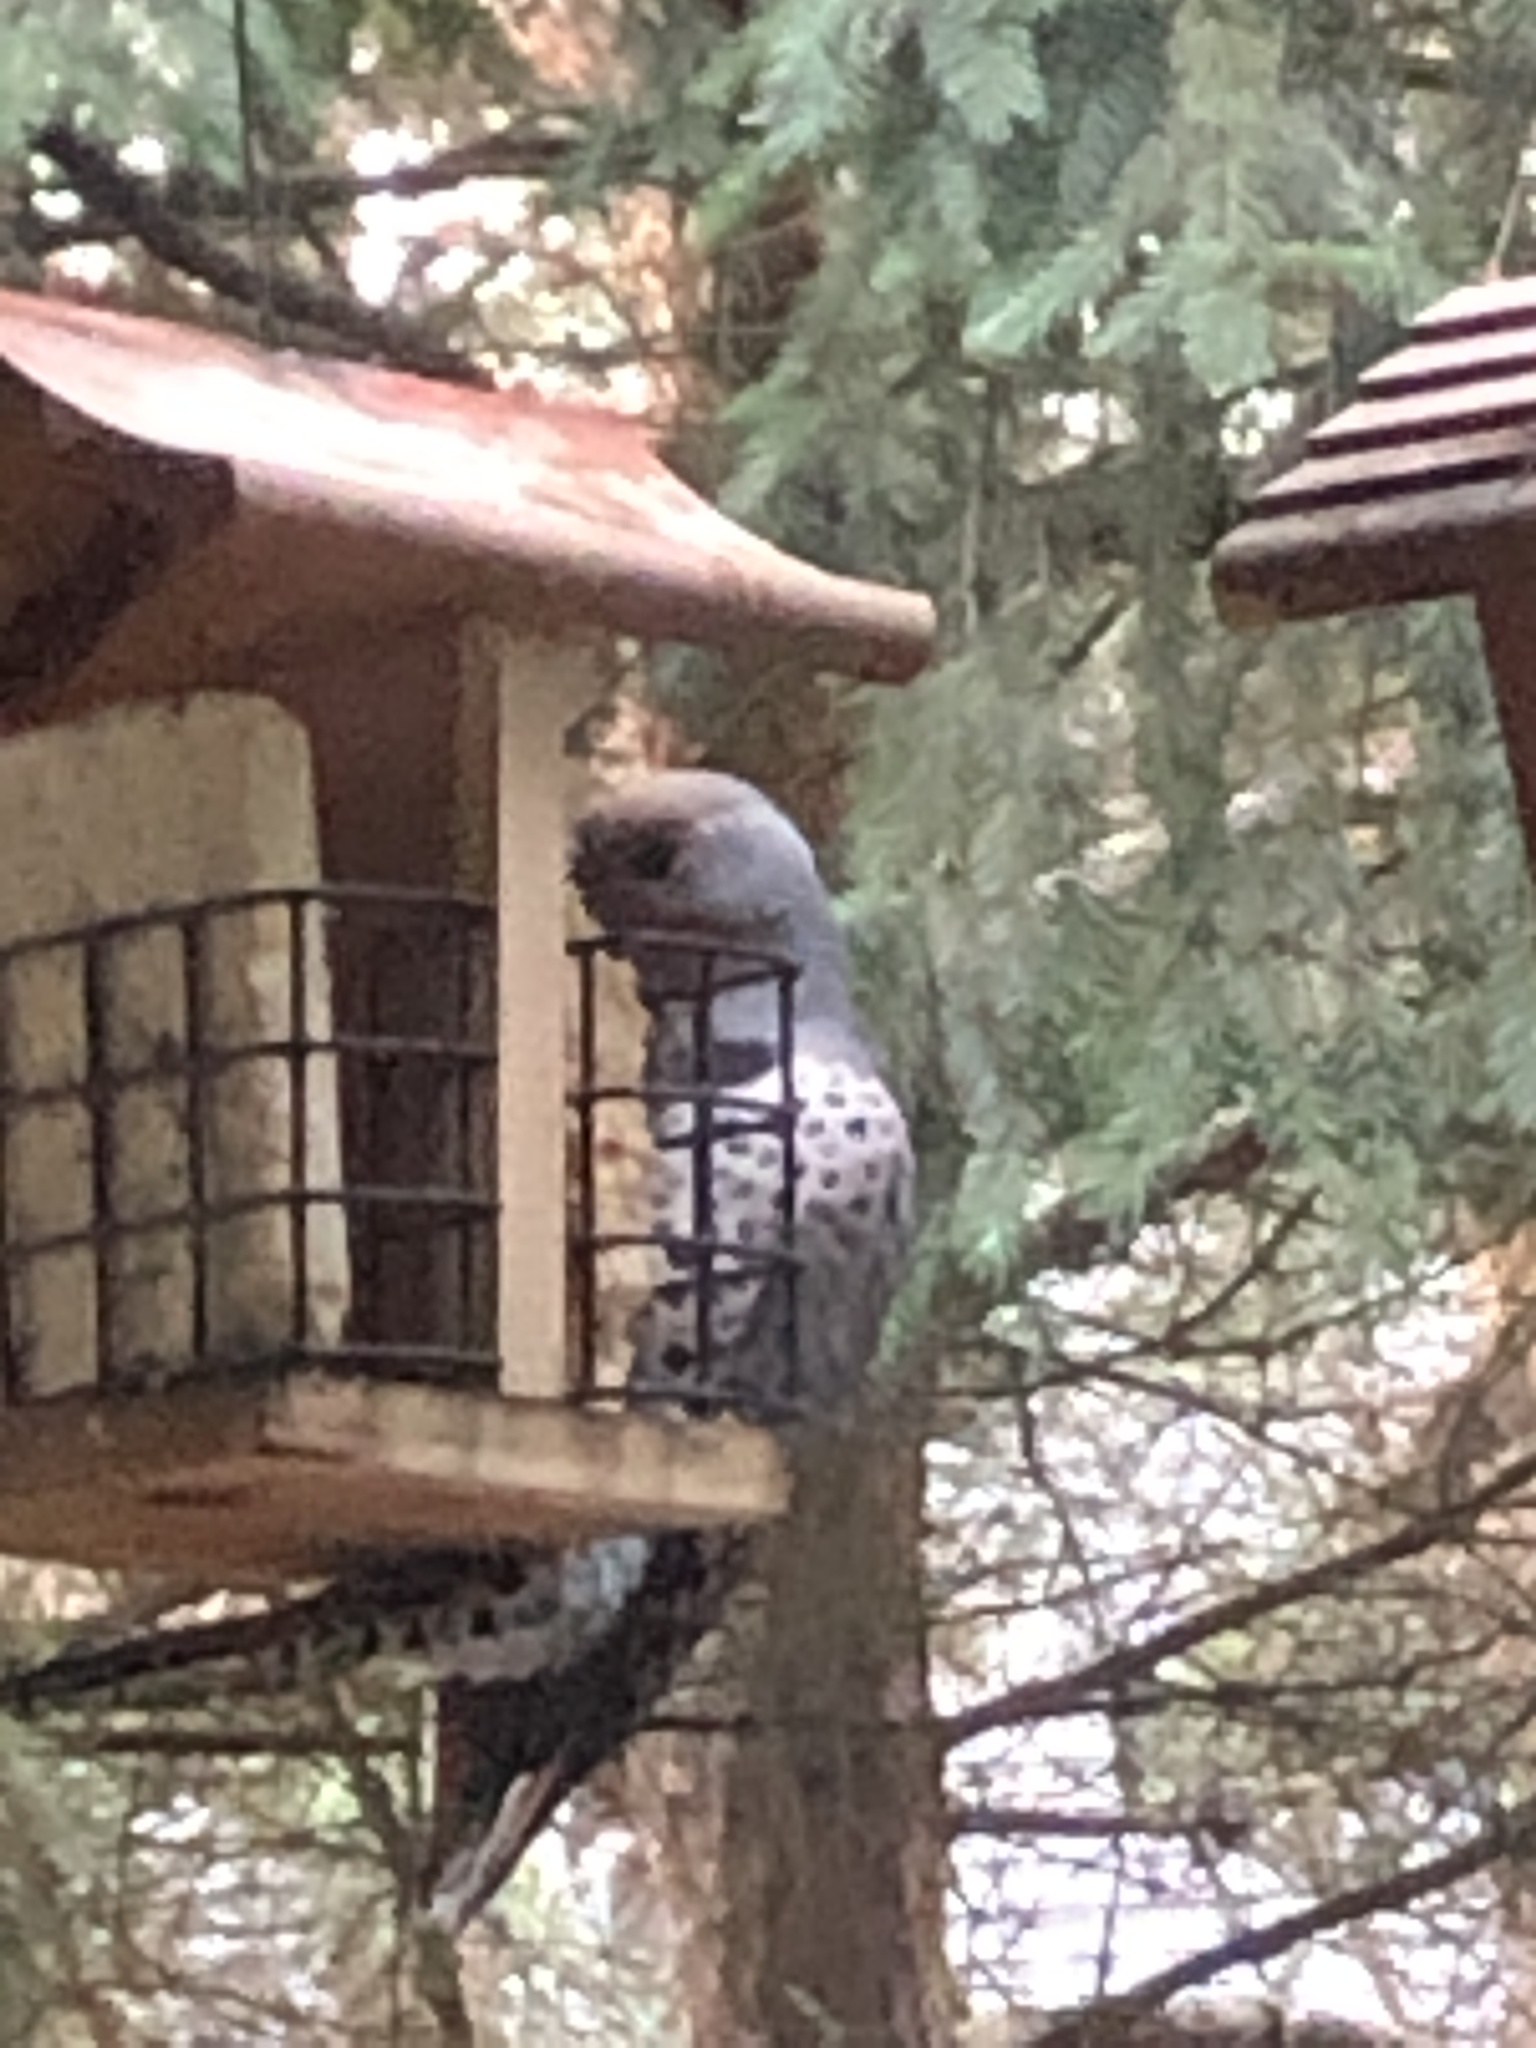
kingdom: Animalia
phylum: Chordata
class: Aves
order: Piciformes
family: Picidae
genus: Colaptes
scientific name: Colaptes auratus
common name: Northern flicker
